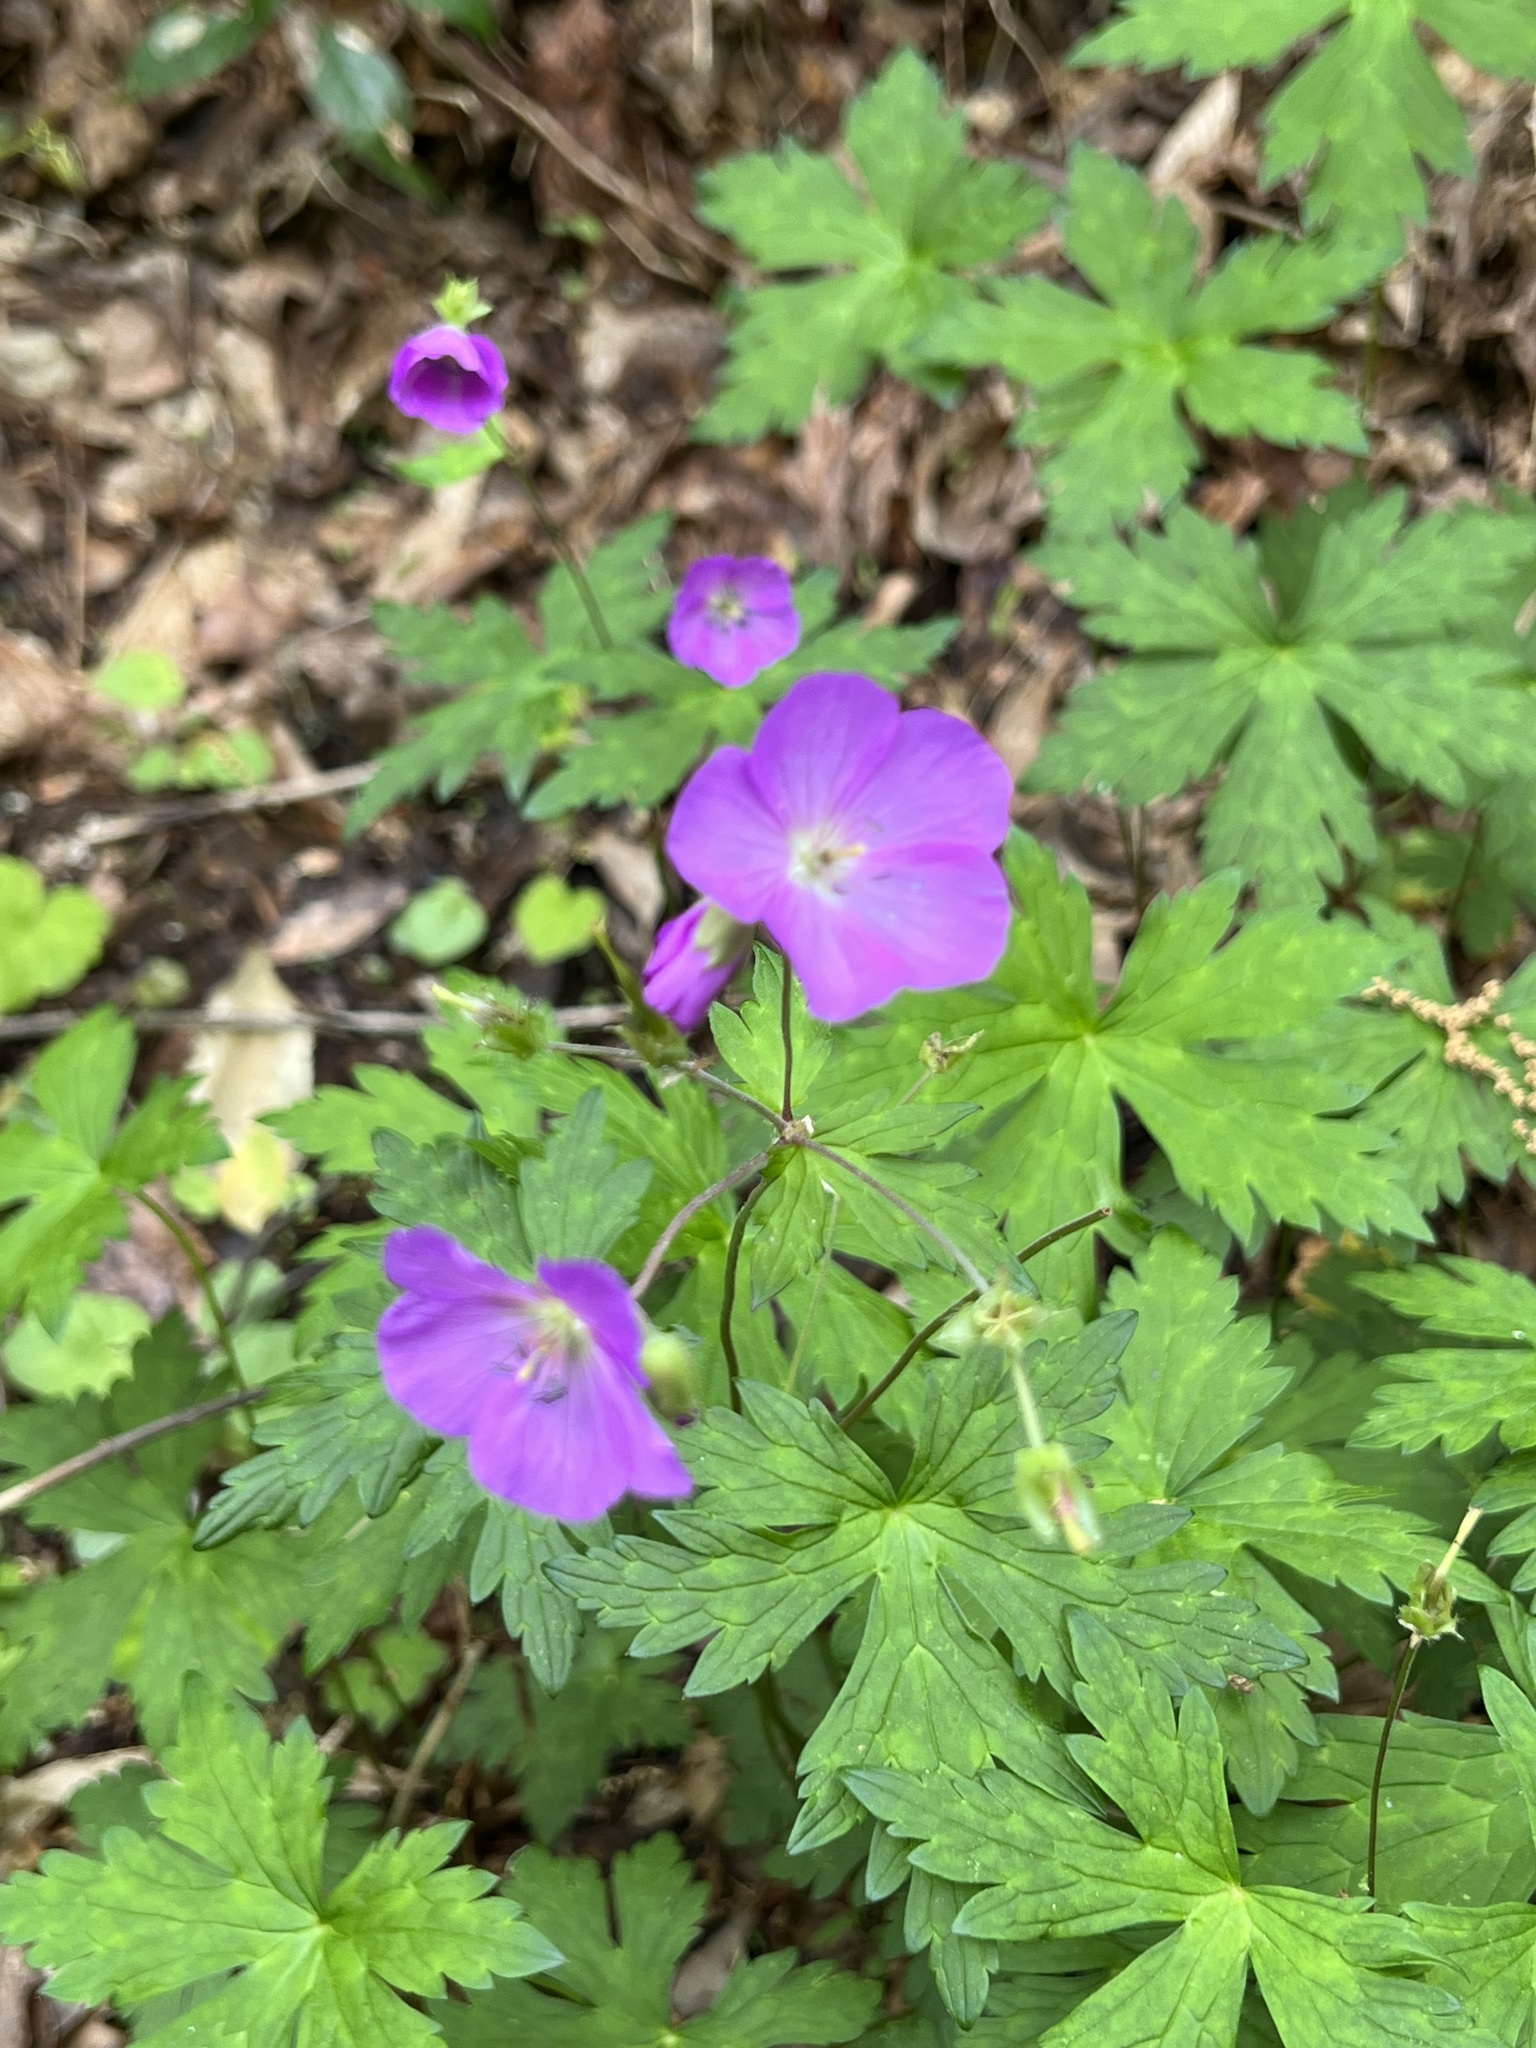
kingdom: Plantae
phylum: Tracheophyta
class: Magnoliopsida
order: Geraniales
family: Geraniaceae
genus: Geranium
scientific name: Geranium maculatum
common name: Spotted geranium
